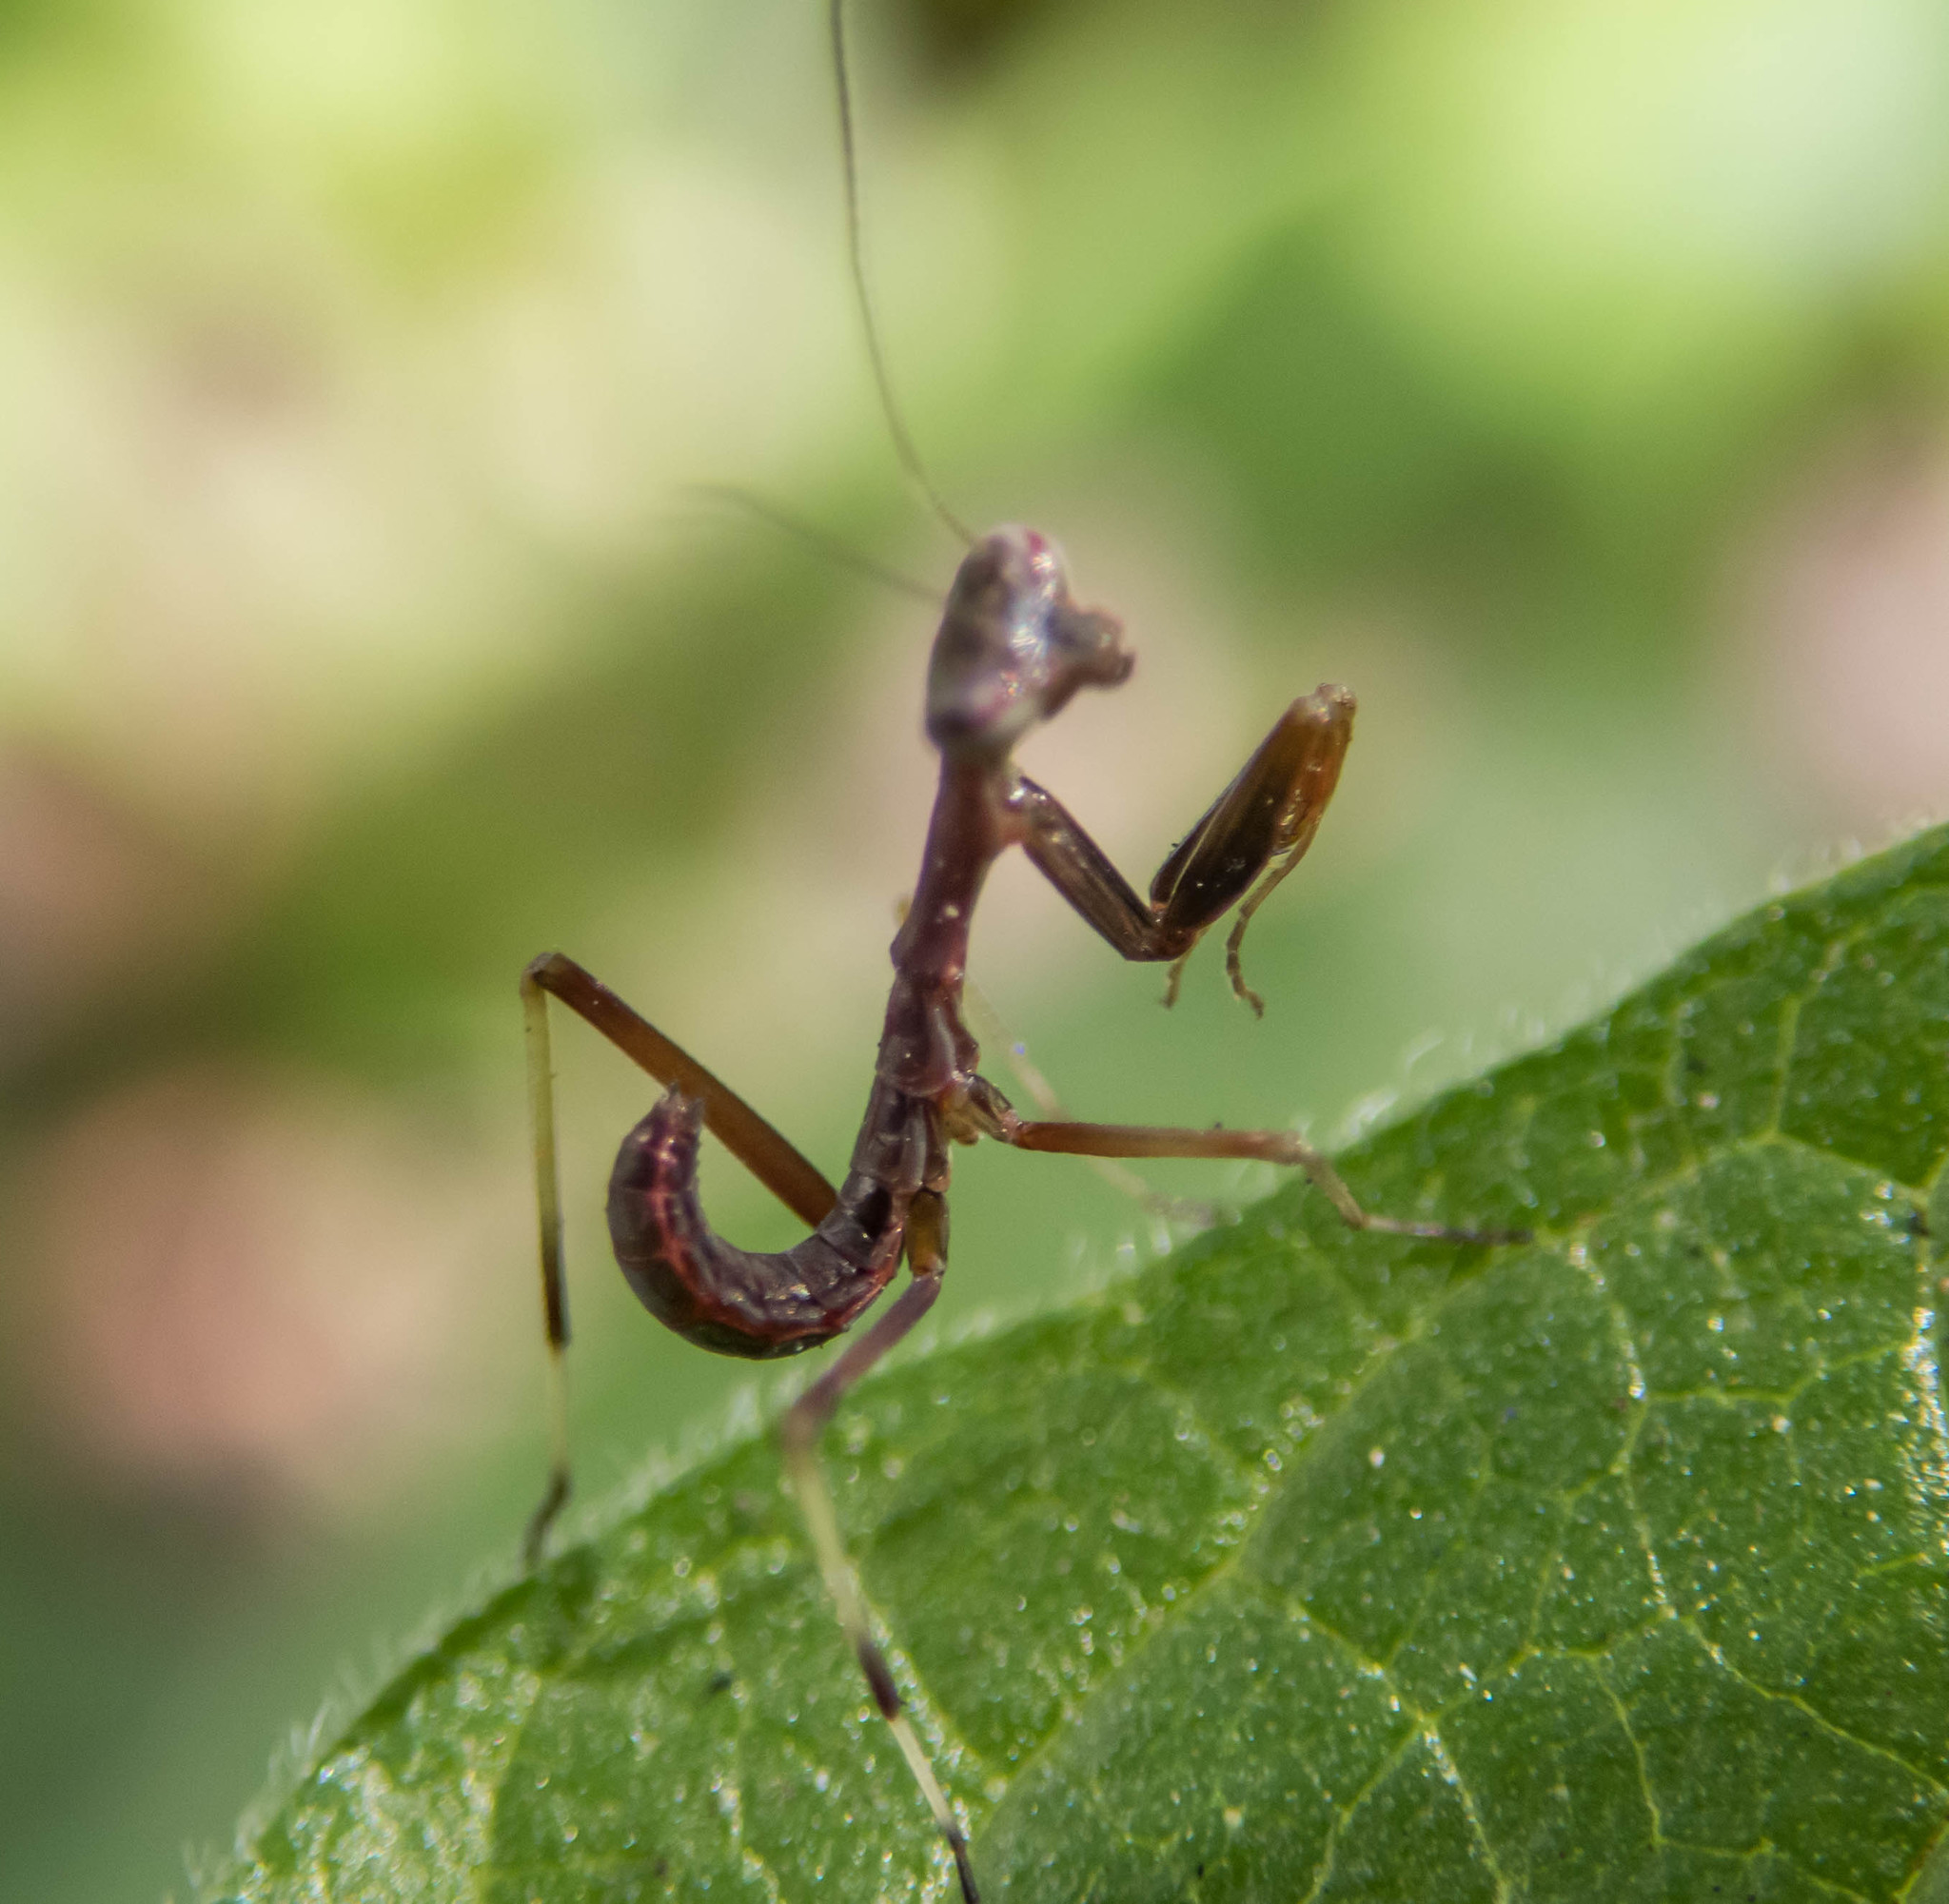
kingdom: Animalia
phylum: Arthropoda
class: Insecta
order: Mantodea
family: Mantidae
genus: Pseudomantis
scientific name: Pseudomantis albofimbriata
